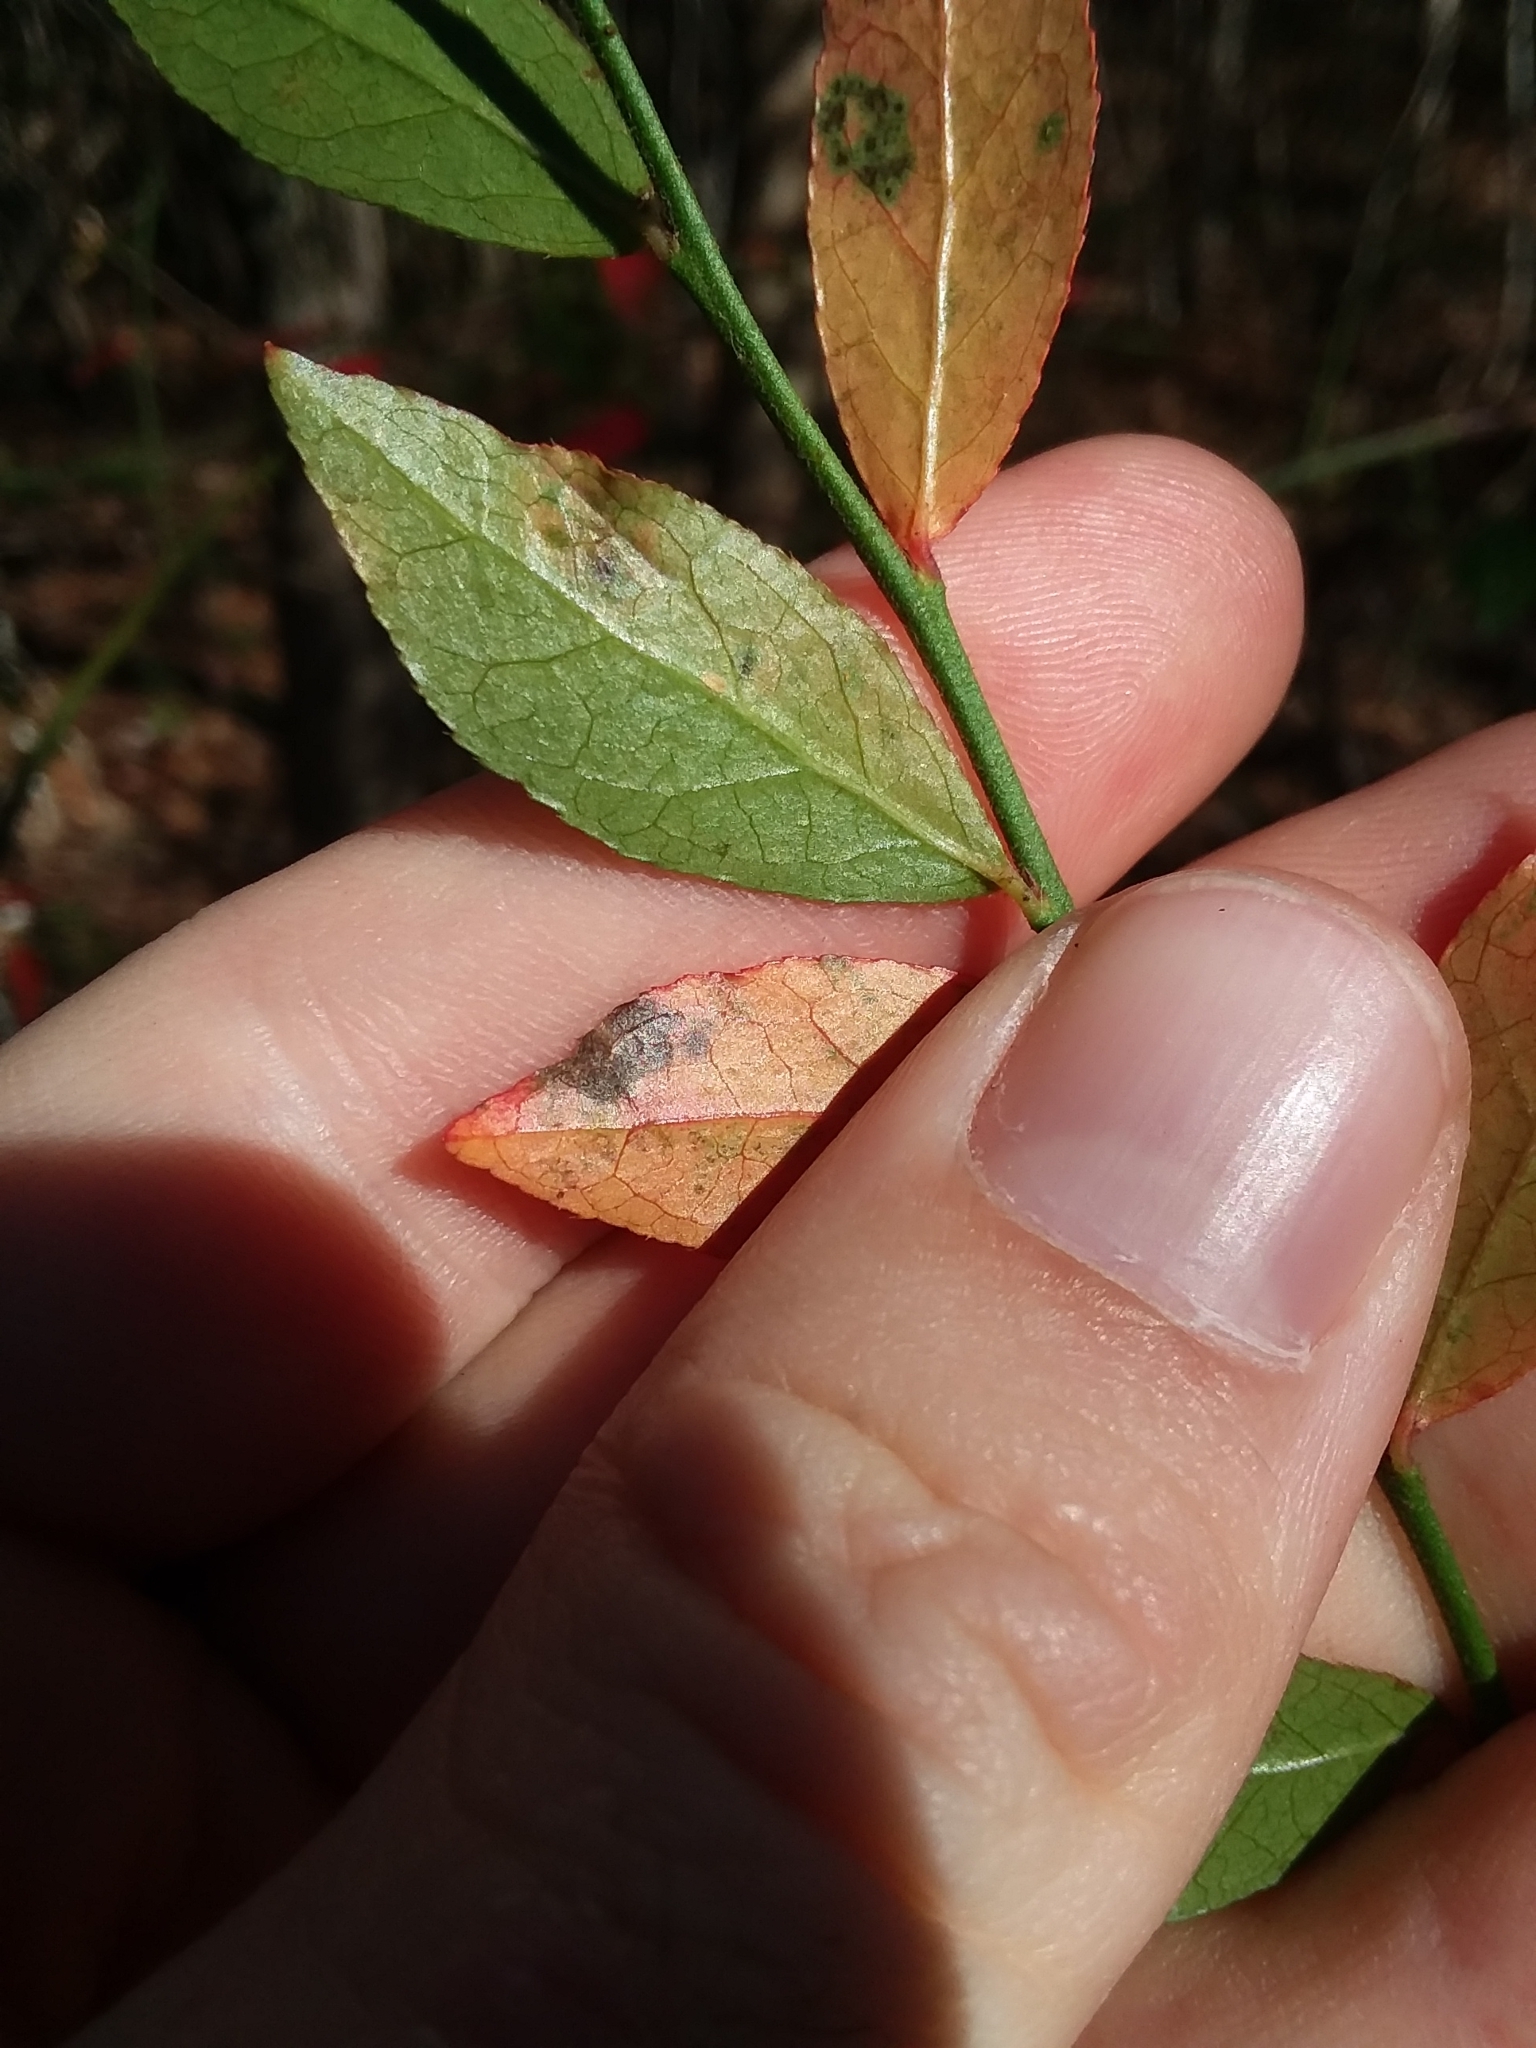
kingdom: Plantae
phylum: Tracheophyta
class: Magnoliopsida
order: Ericales
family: Ericaceae
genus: Vaccinium
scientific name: Vaccinium corymbosum
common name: Blueberry
